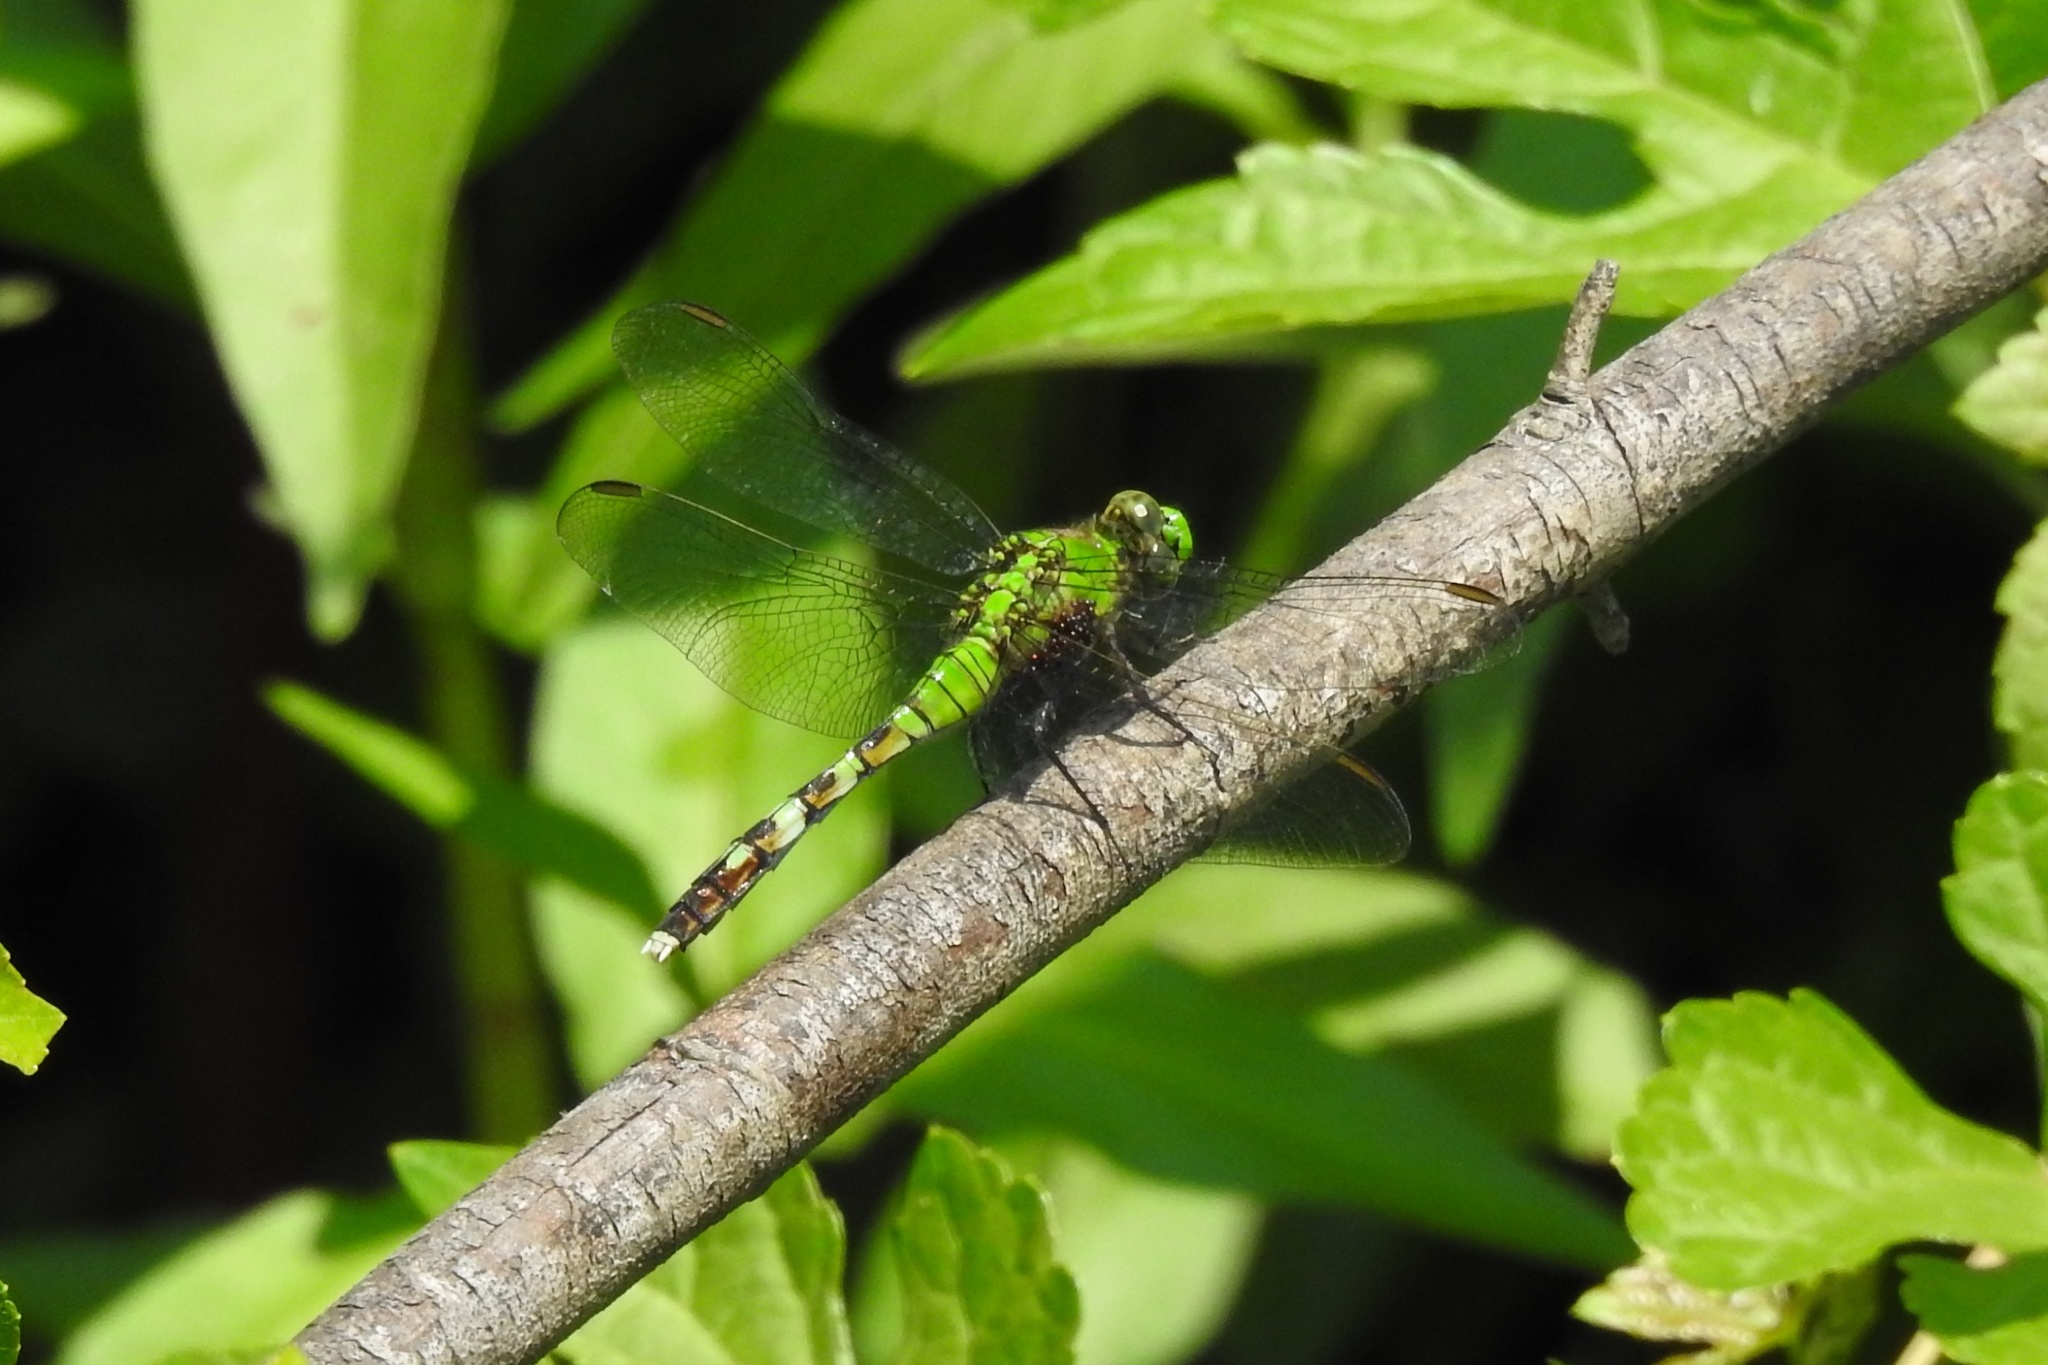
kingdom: Animalia
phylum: Arthropoda
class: Insecta
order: Odonata
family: Libellulidae
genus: Erythemis
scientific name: Erythemis simplicicollis
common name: Eastern pondhawk
